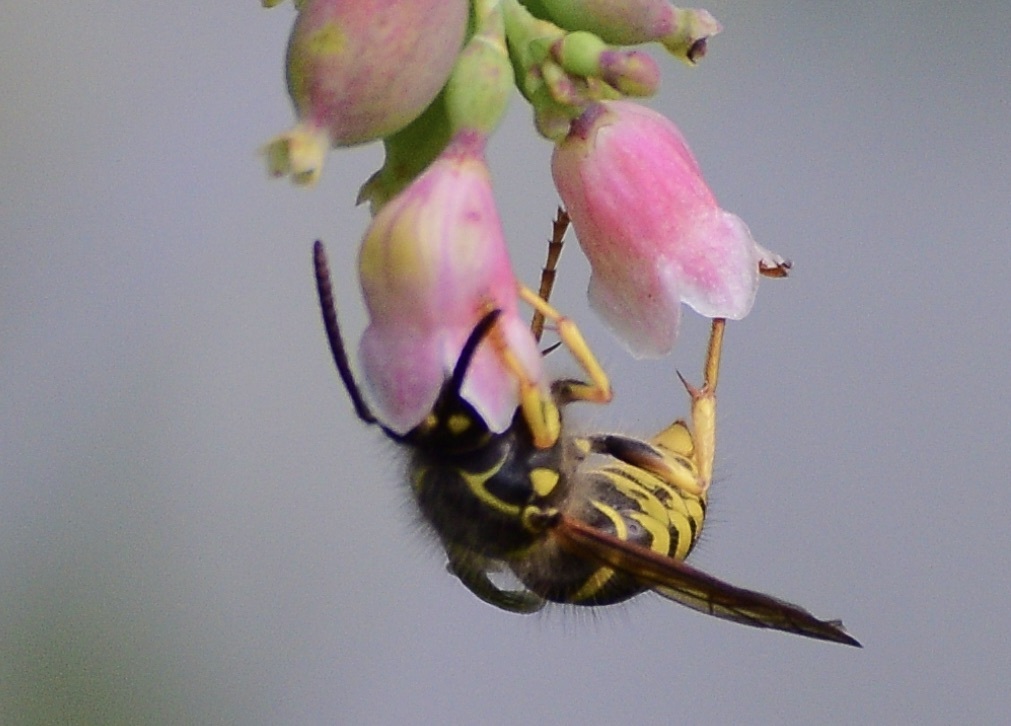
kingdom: Animalia
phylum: Arthropoda
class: Insecta
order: Hymenoptera
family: Vespidae
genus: Dolichovespula
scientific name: Dolichovespula arenaria
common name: Aerial yellowjacket
